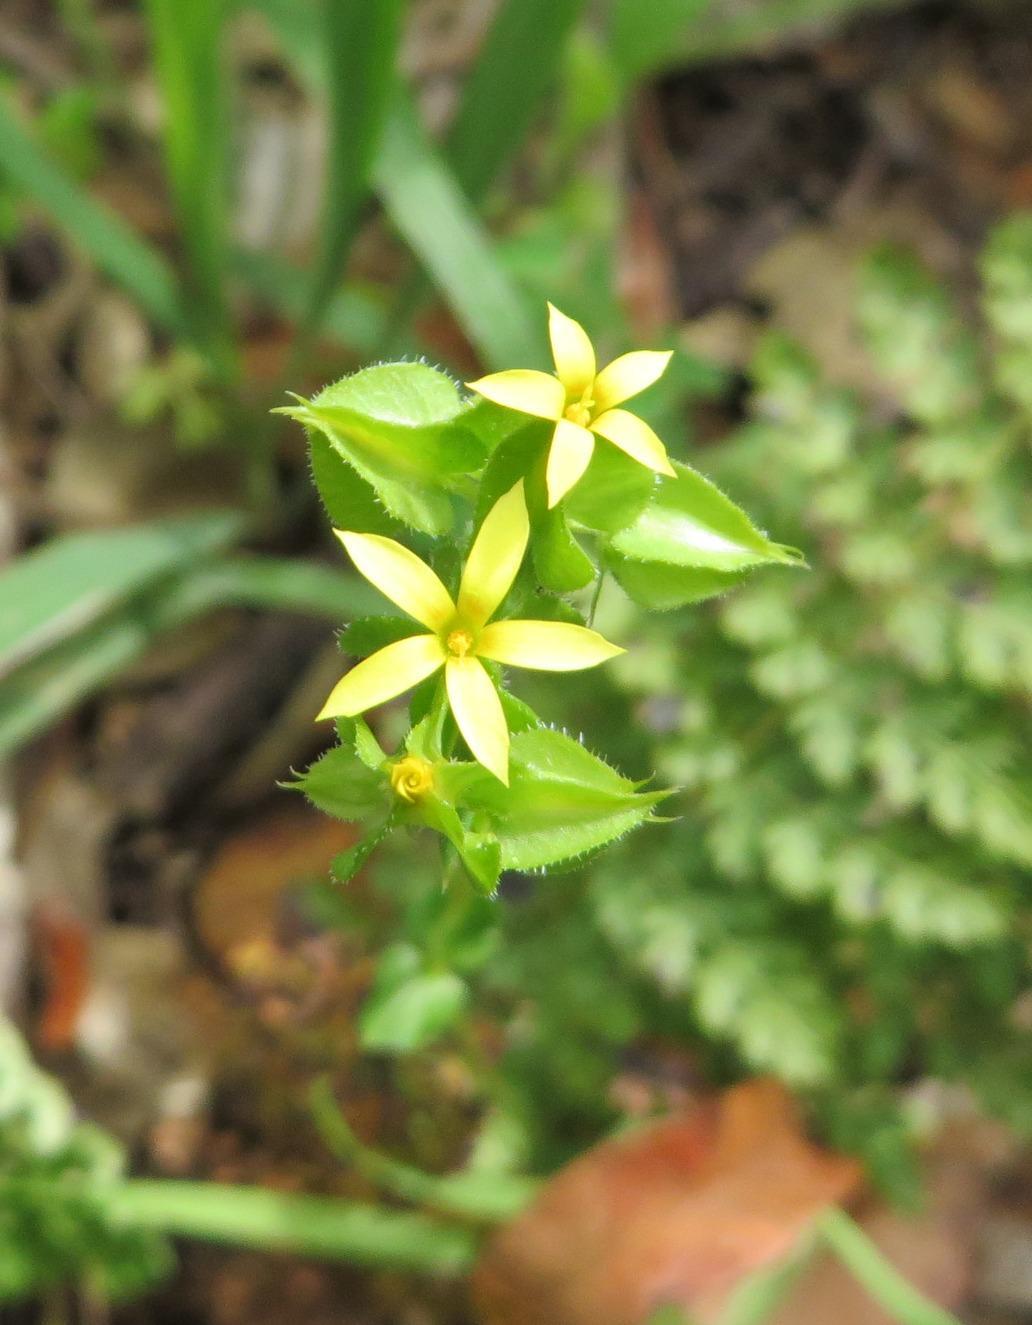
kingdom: Plantae
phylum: Tracheophyta
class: Magnoliopsida
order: Gentianales
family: Gentianaceae
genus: Sebaea
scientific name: Sebaea micrantha
